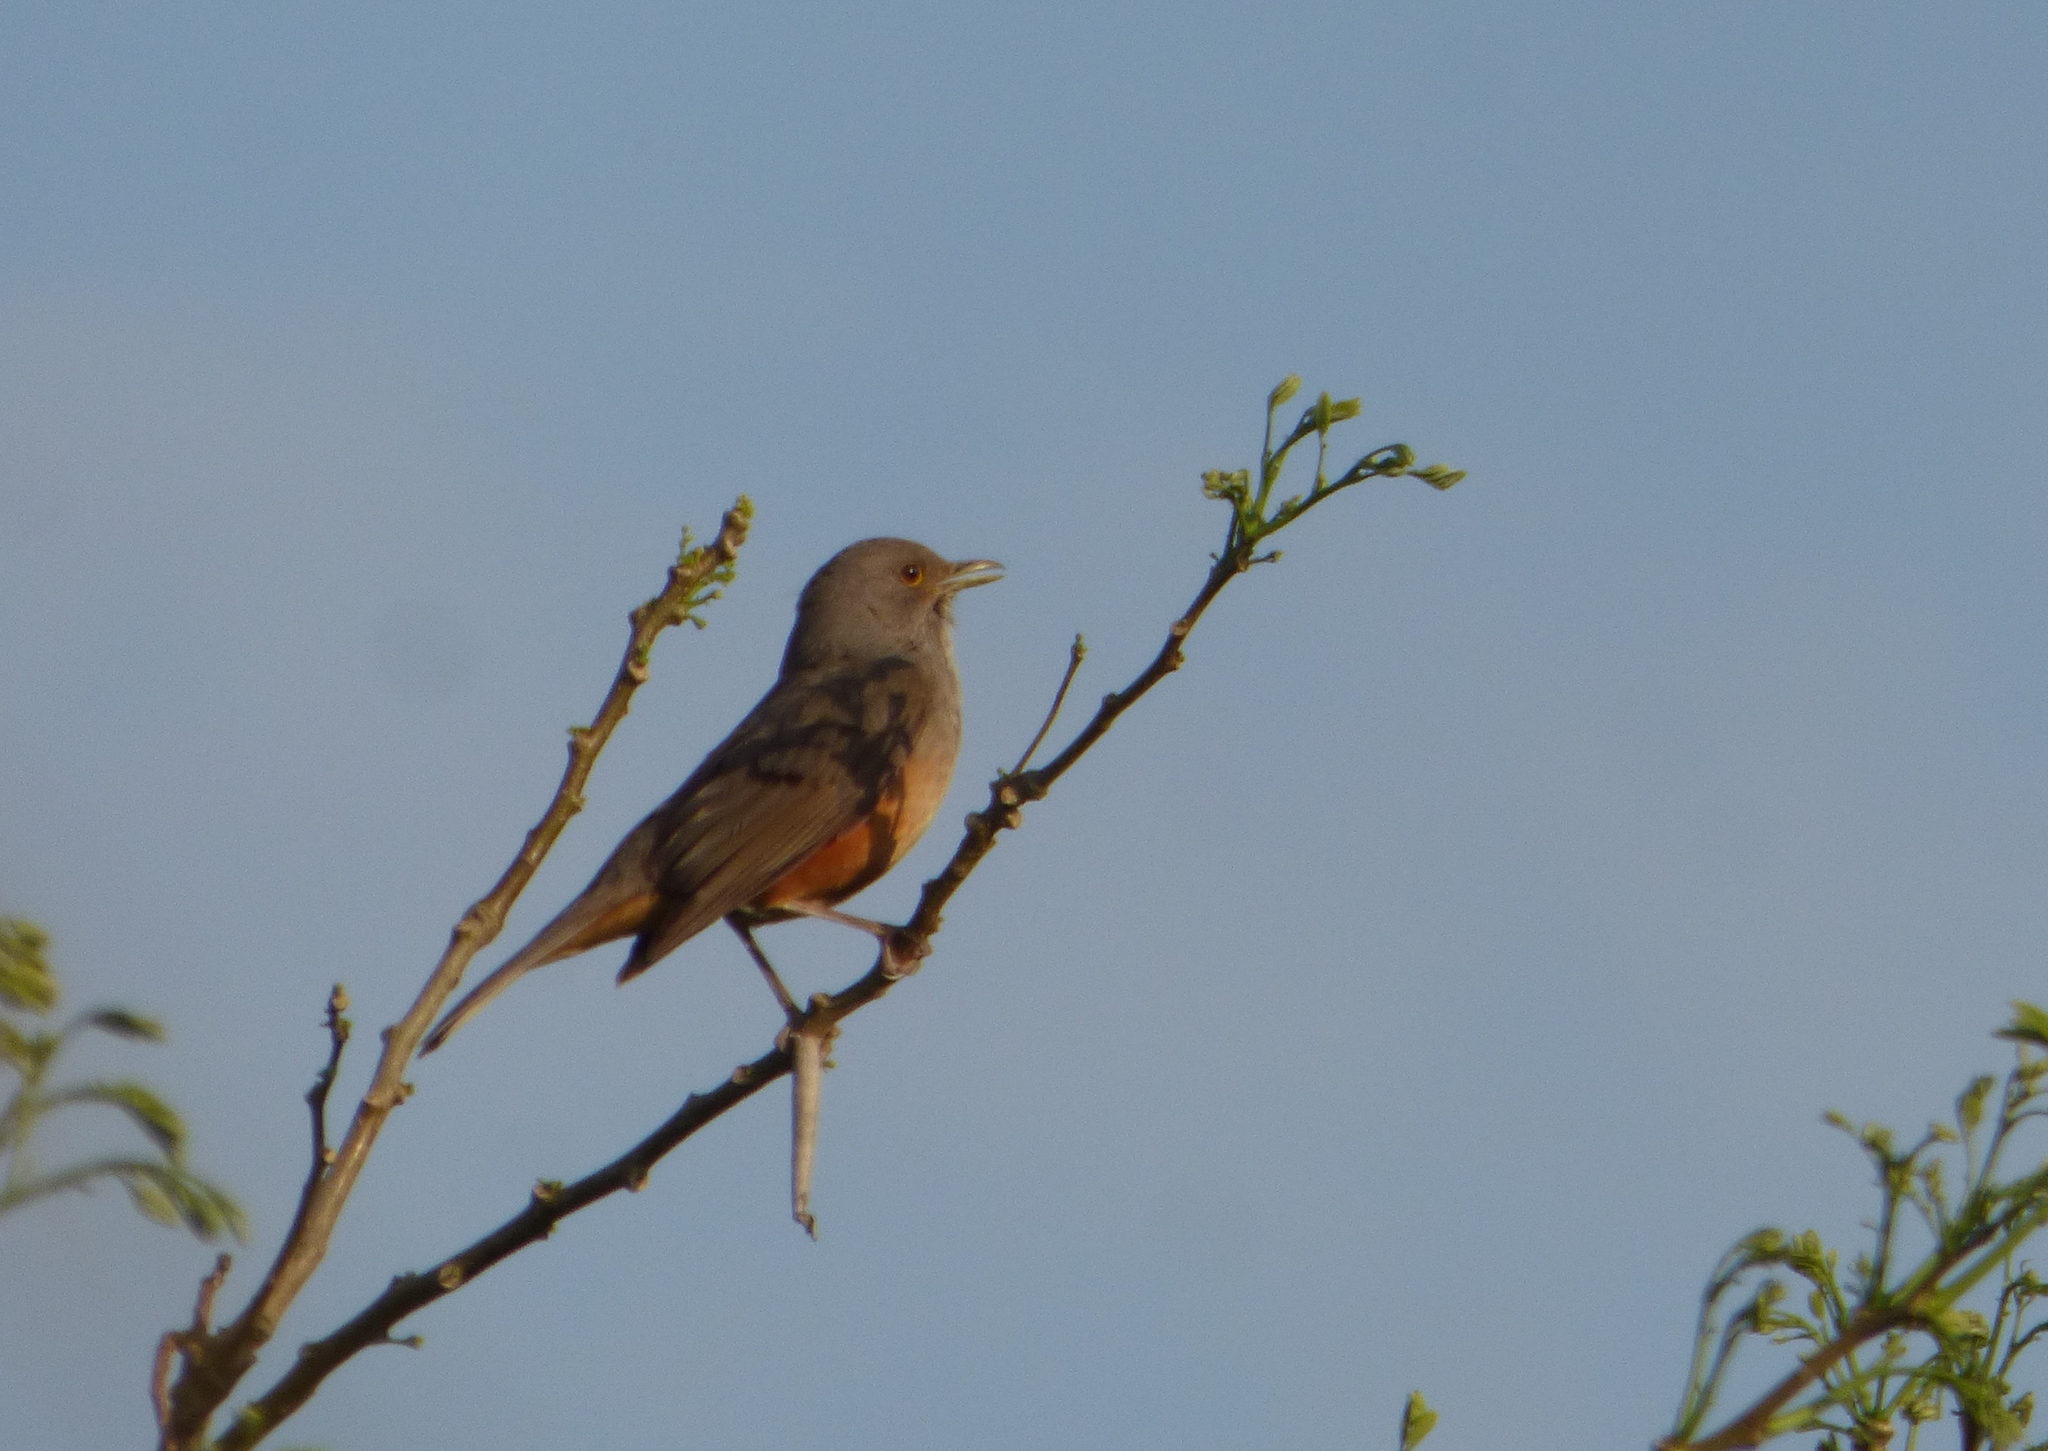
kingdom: Animalia
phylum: Chordata
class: Aves
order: Passeriformes
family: Turdidae
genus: Turdus
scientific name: Turdus rufiventris
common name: Rufous-bellied thrush
